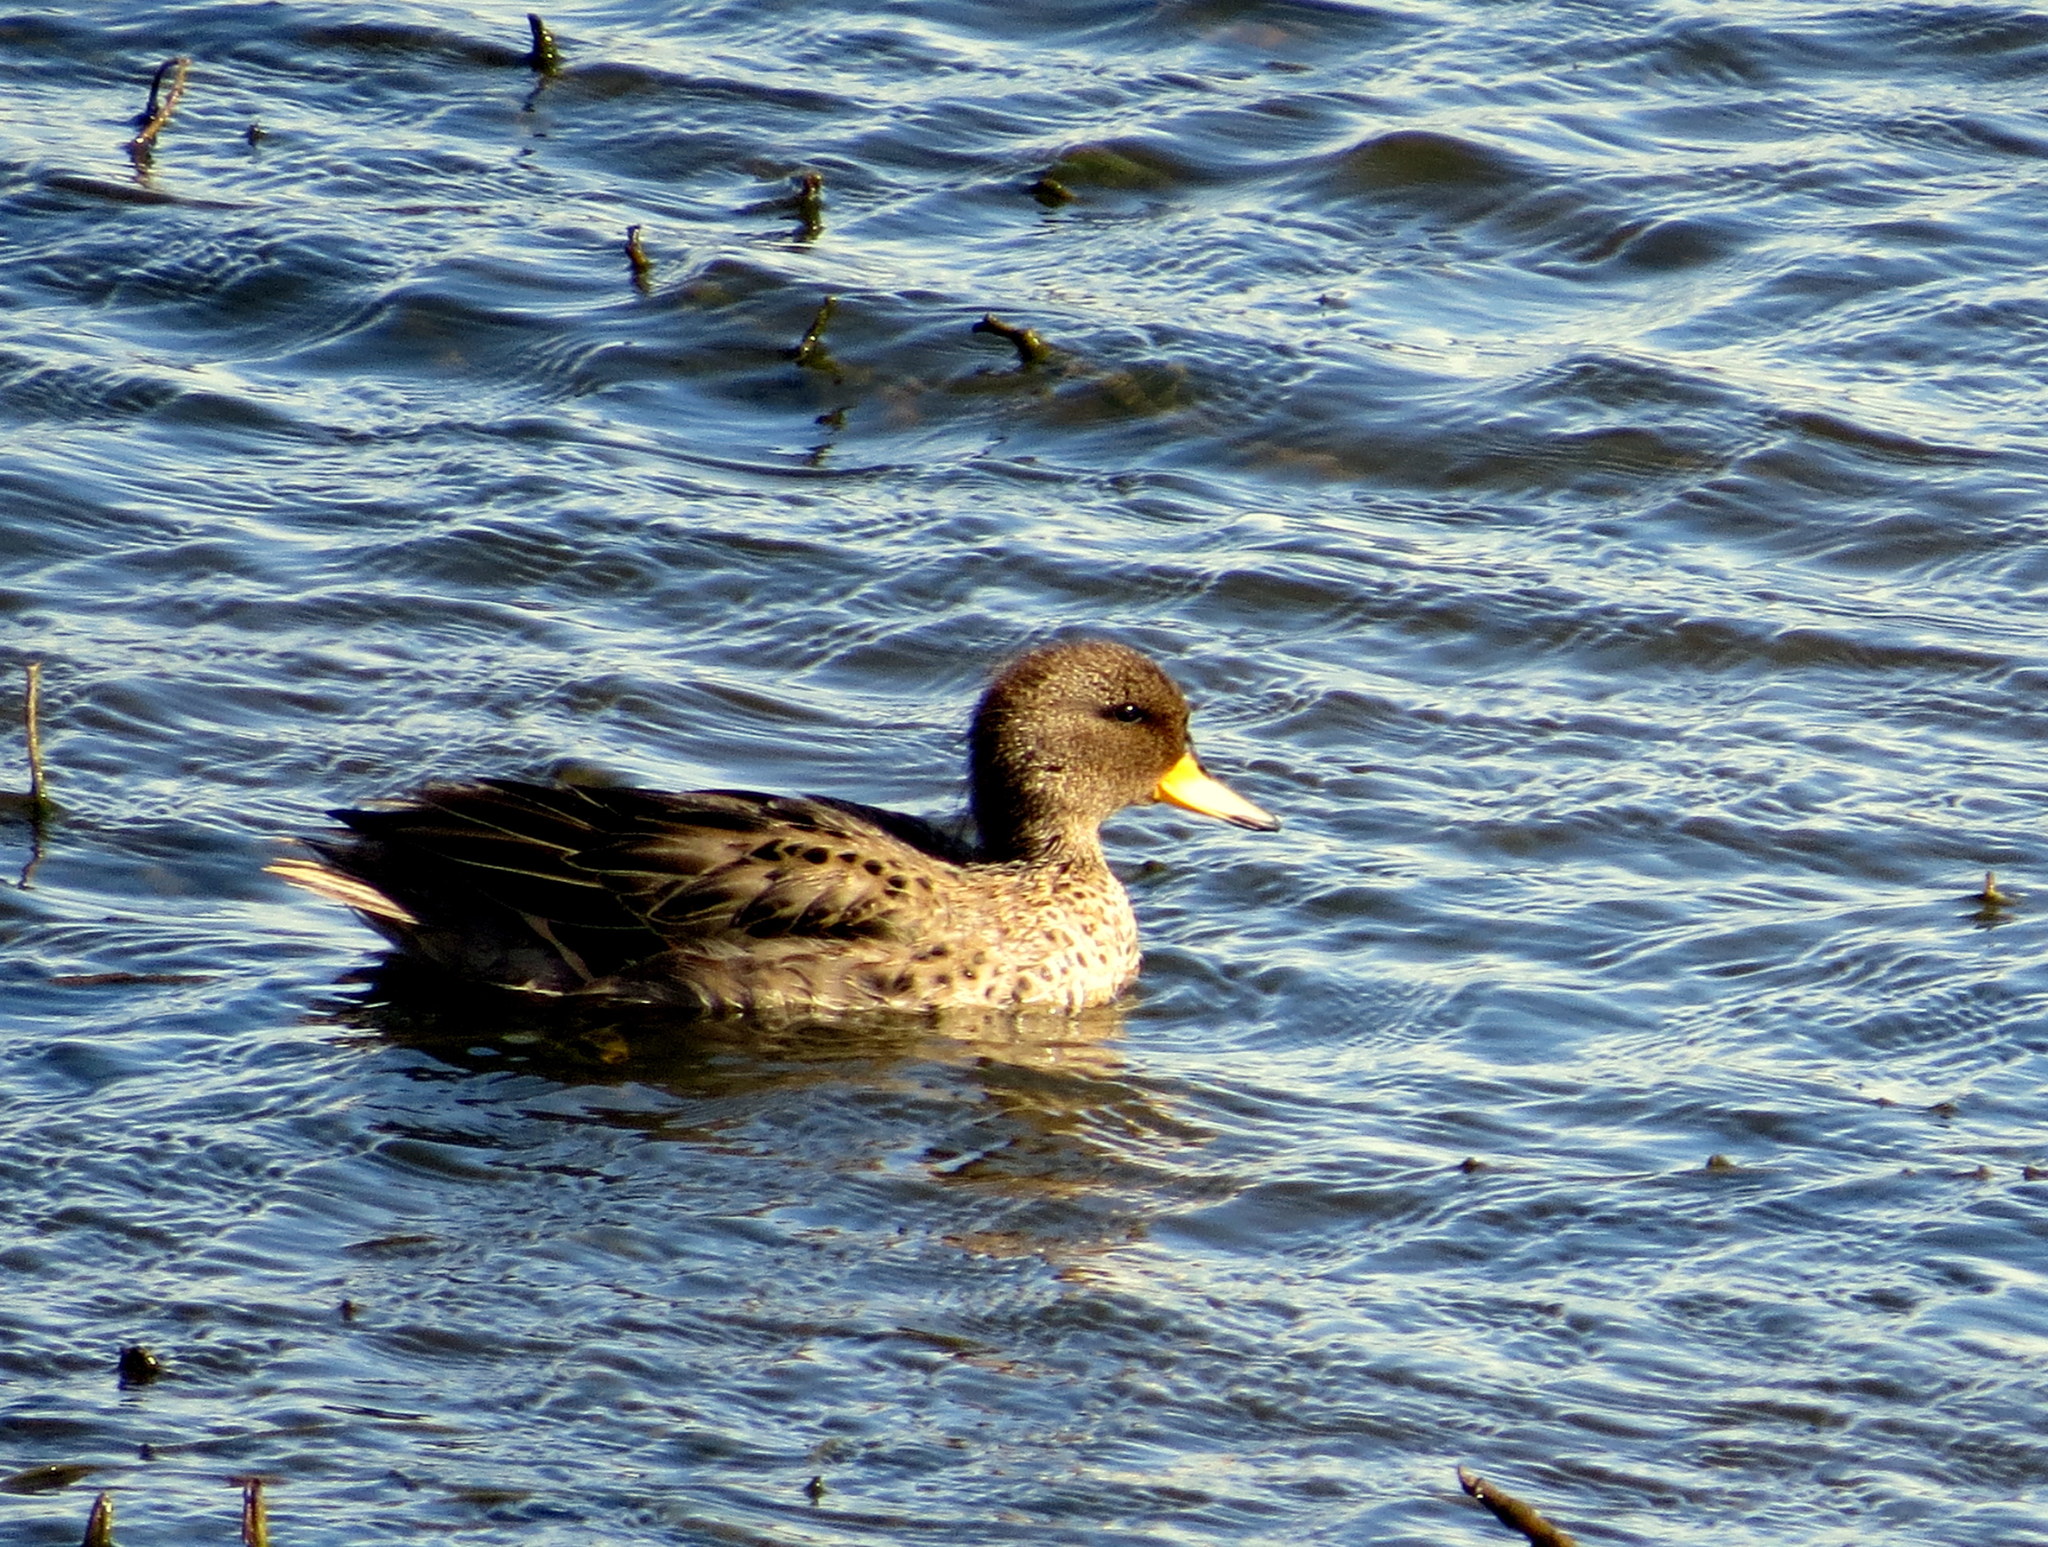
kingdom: Animalia
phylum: Chordata
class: Aves
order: Anseriformes
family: Anatidae
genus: Anas
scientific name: Anas flavirostris
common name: Yellow-billed teal
